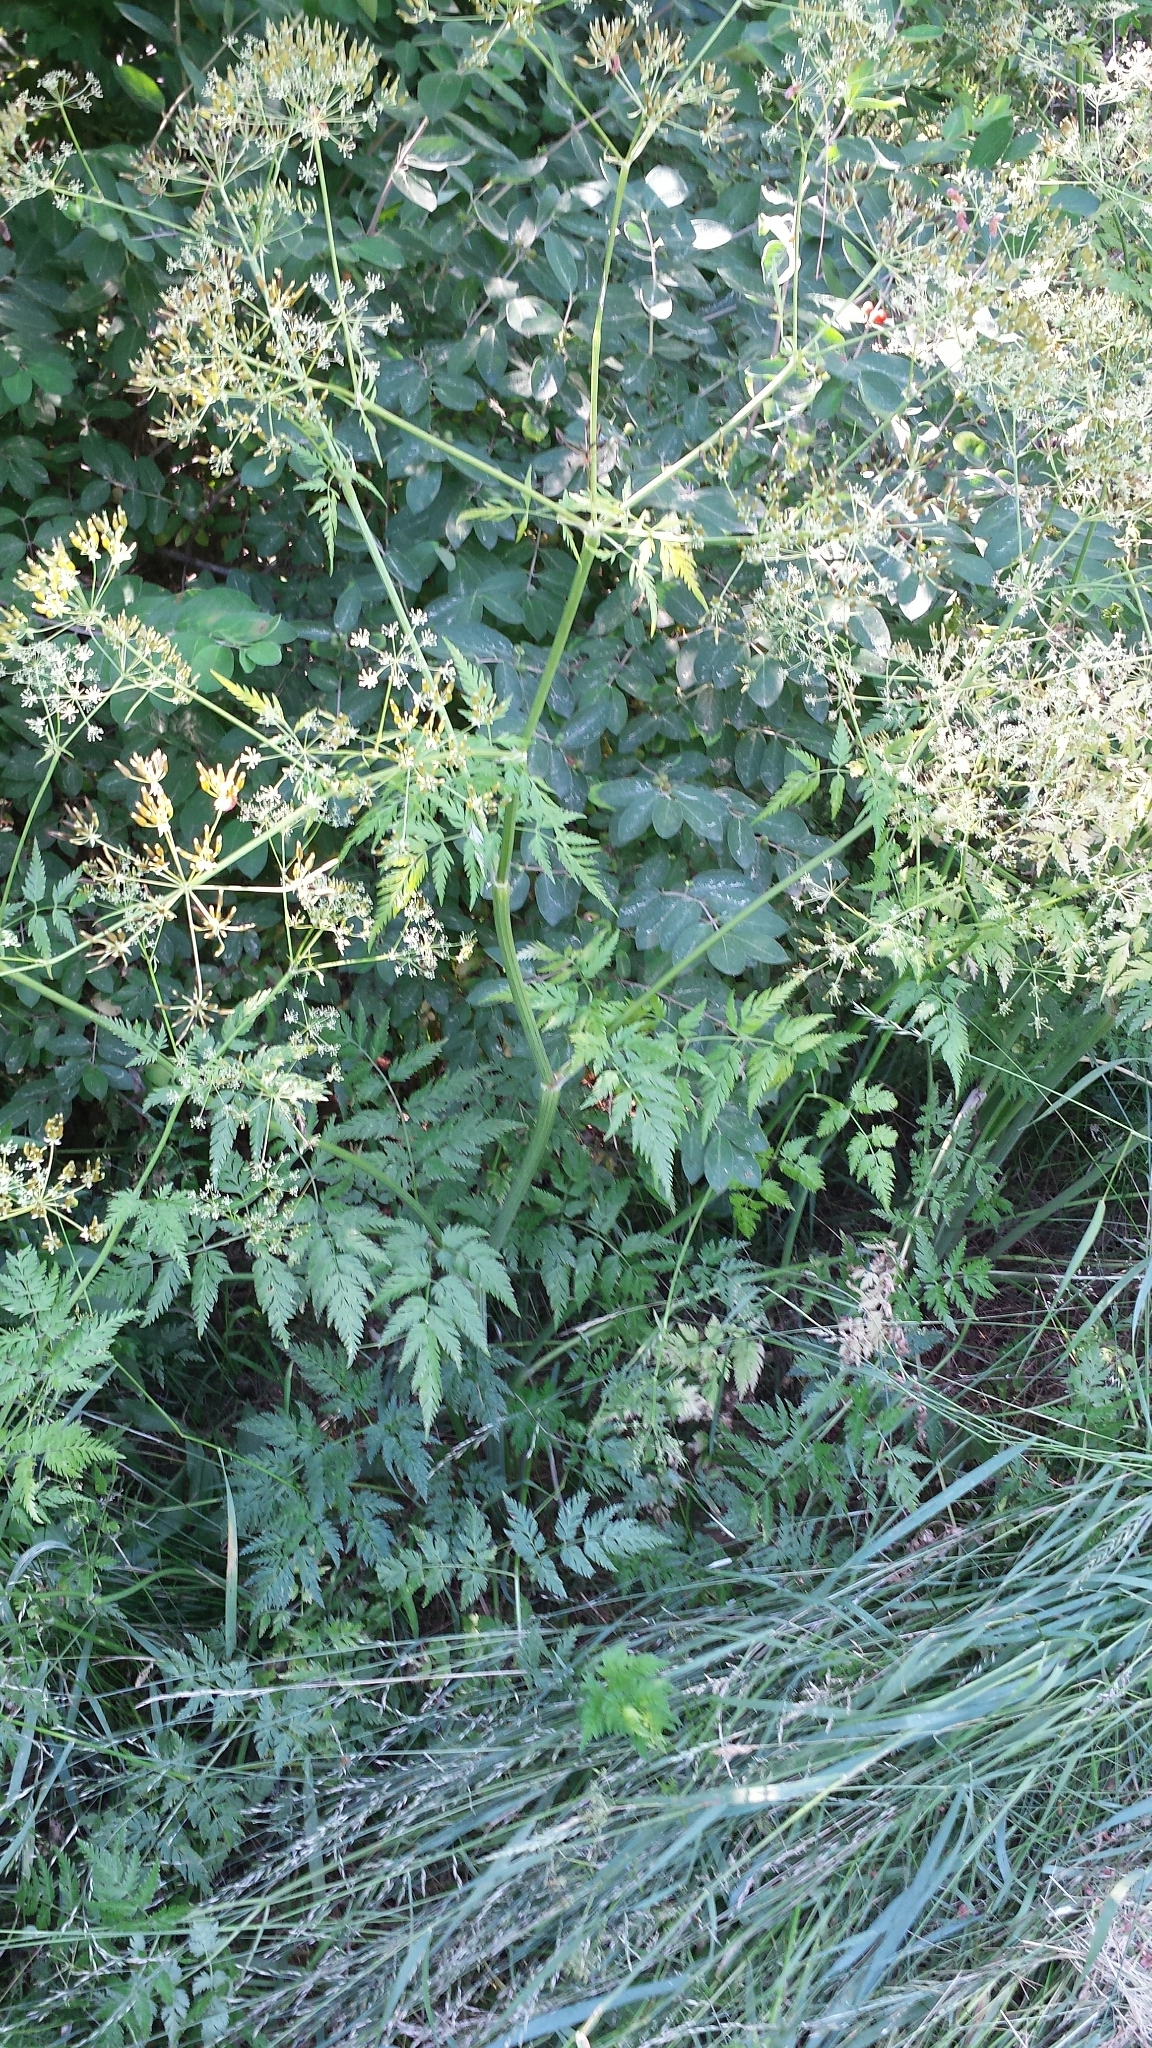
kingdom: Plantae
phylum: Tracheophyta
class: Magnoliopsida
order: Apiales
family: Apiaceae
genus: Anthriscus
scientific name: Anthriscus sylvestris
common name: Cow parsley
